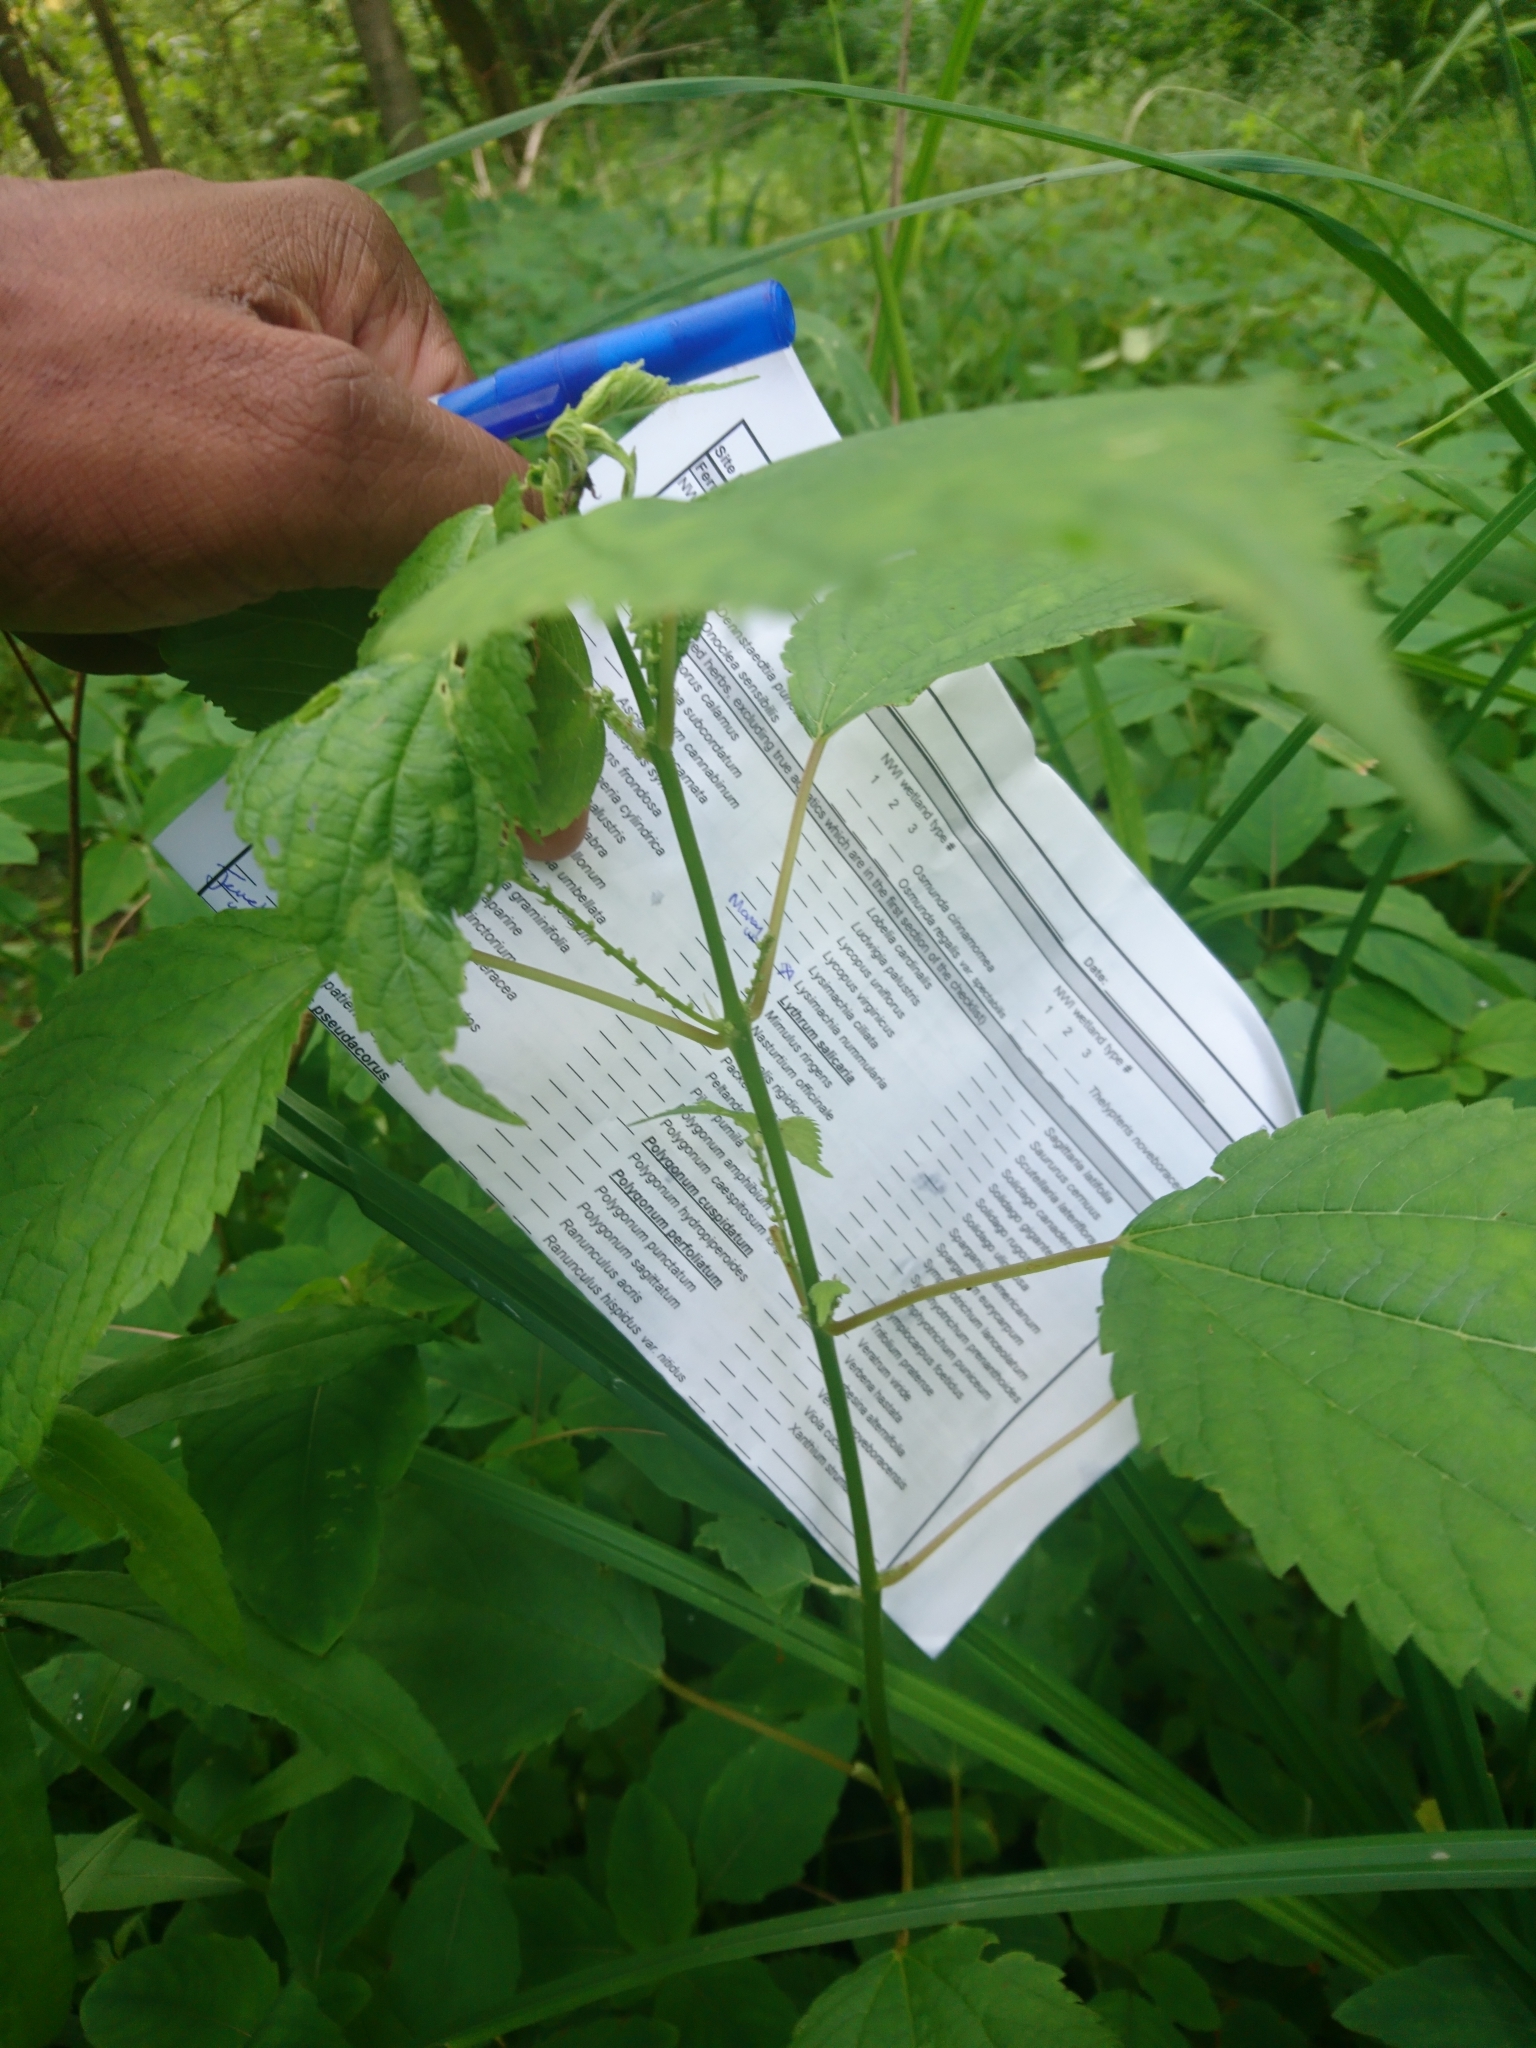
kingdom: Plantae
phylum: Tracheophyta
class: Magnoliopsida
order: Rosales
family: Urticaceae
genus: Boehmeria
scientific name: Boehmeria cylindrica
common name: Bog-hemp
